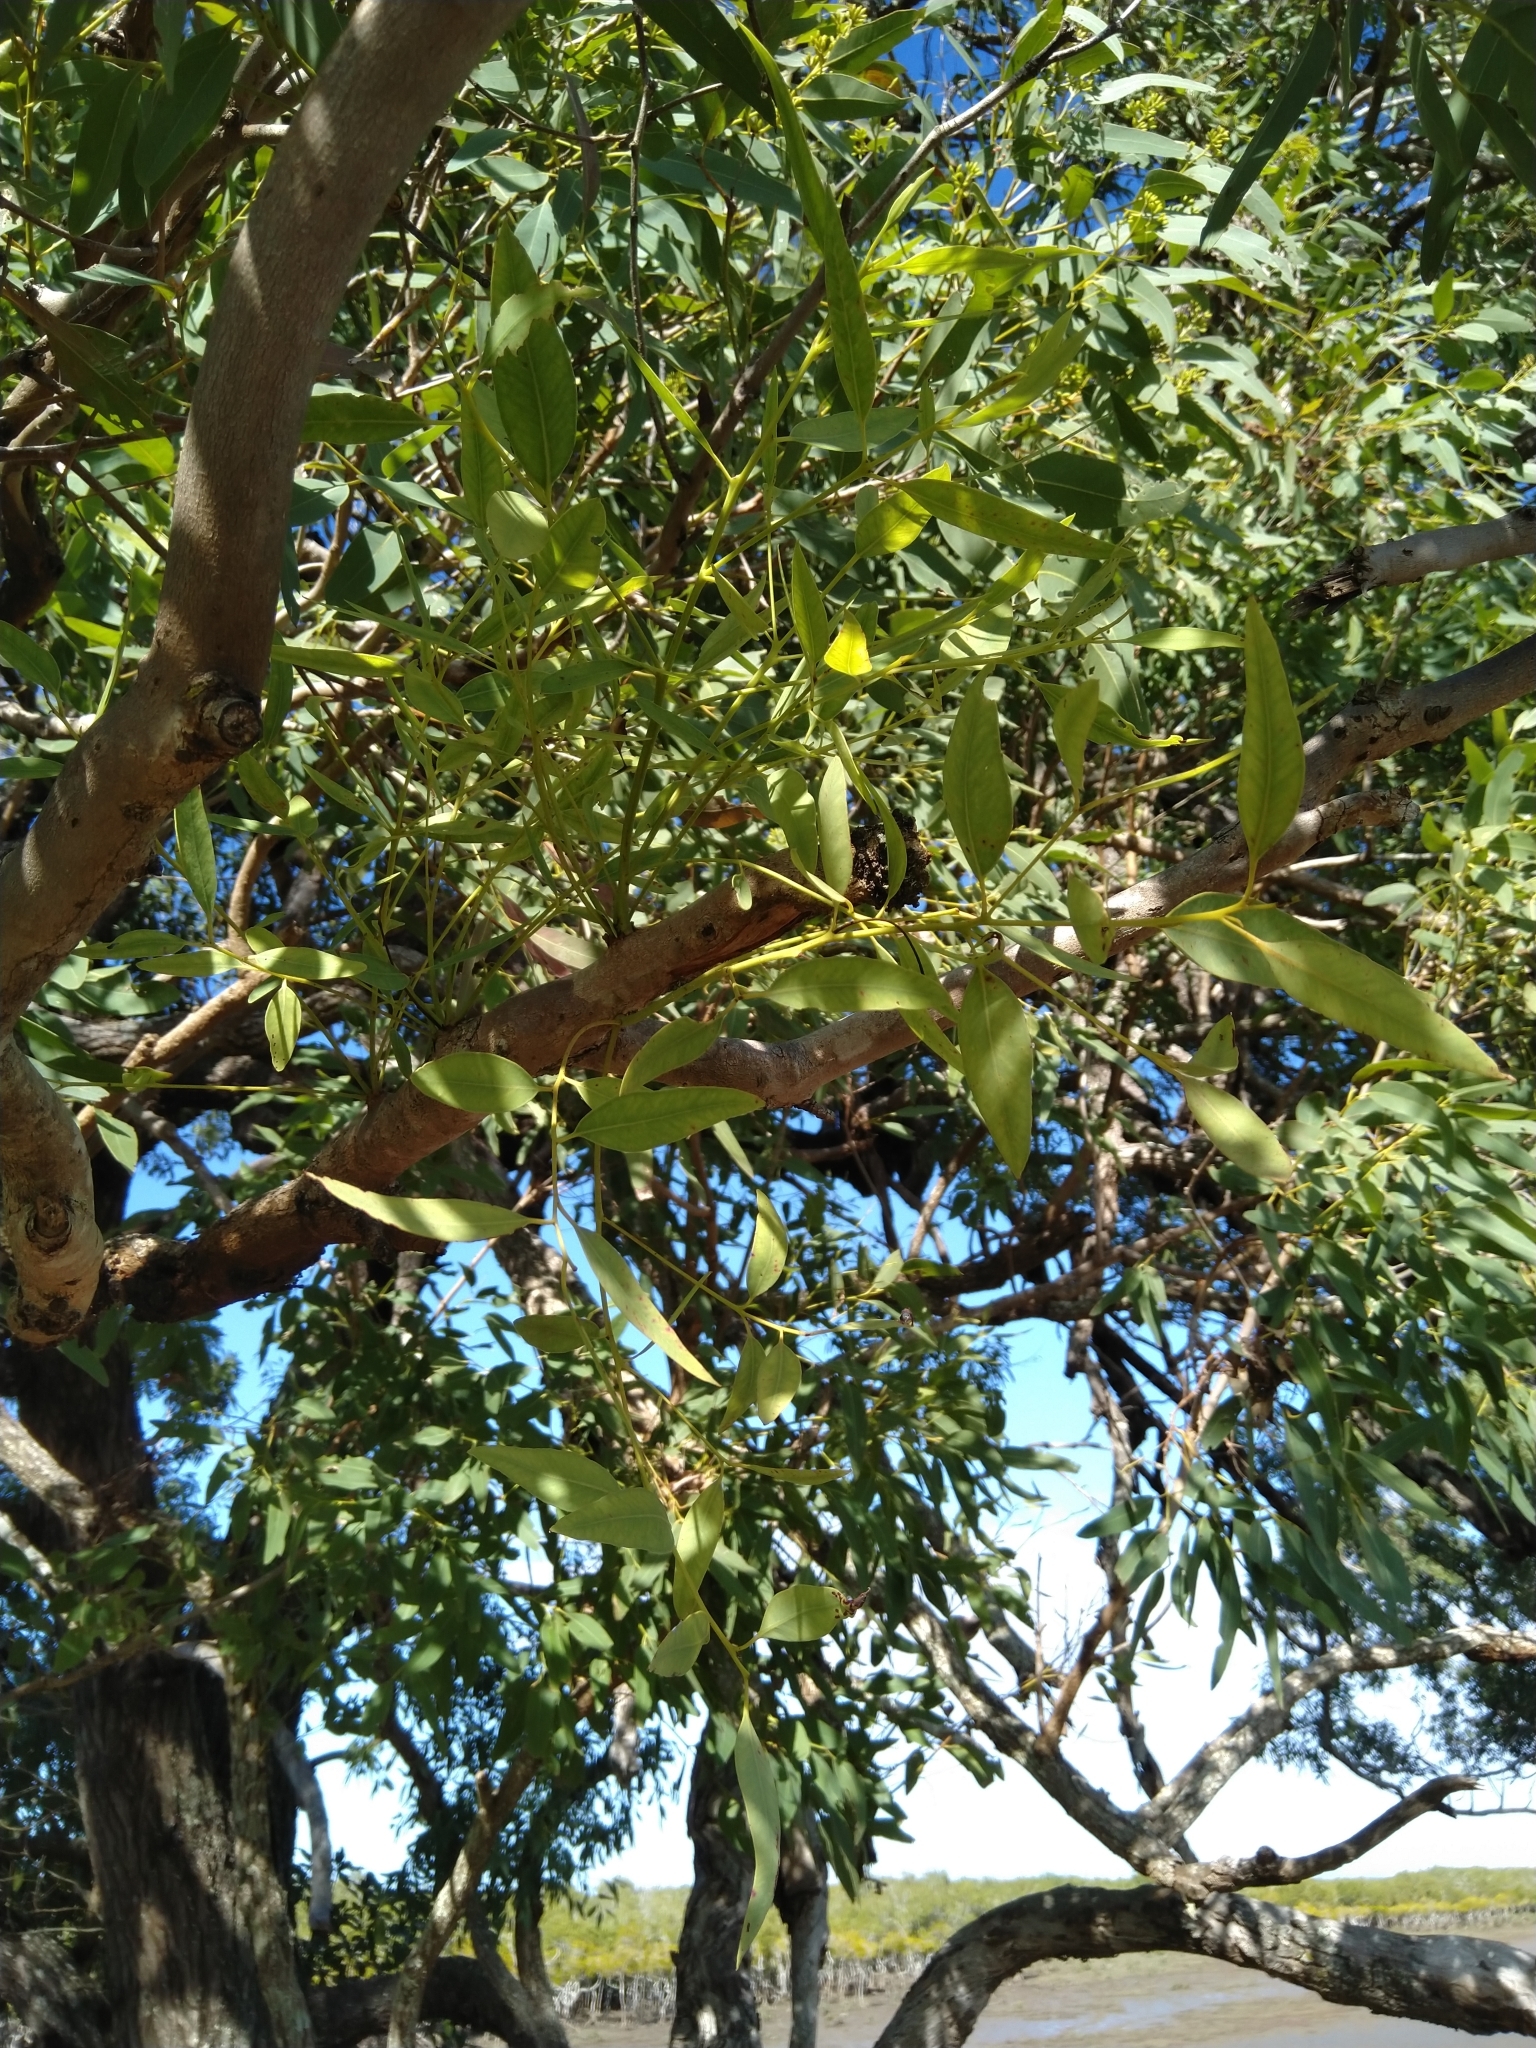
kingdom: Plantae
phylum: Tracheophyta
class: Magnoliopsida
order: Myrtales
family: Myrtaceae
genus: Eucalyptus
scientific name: Eucalyptus siderophloia
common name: Broad-leafed-ironbark
